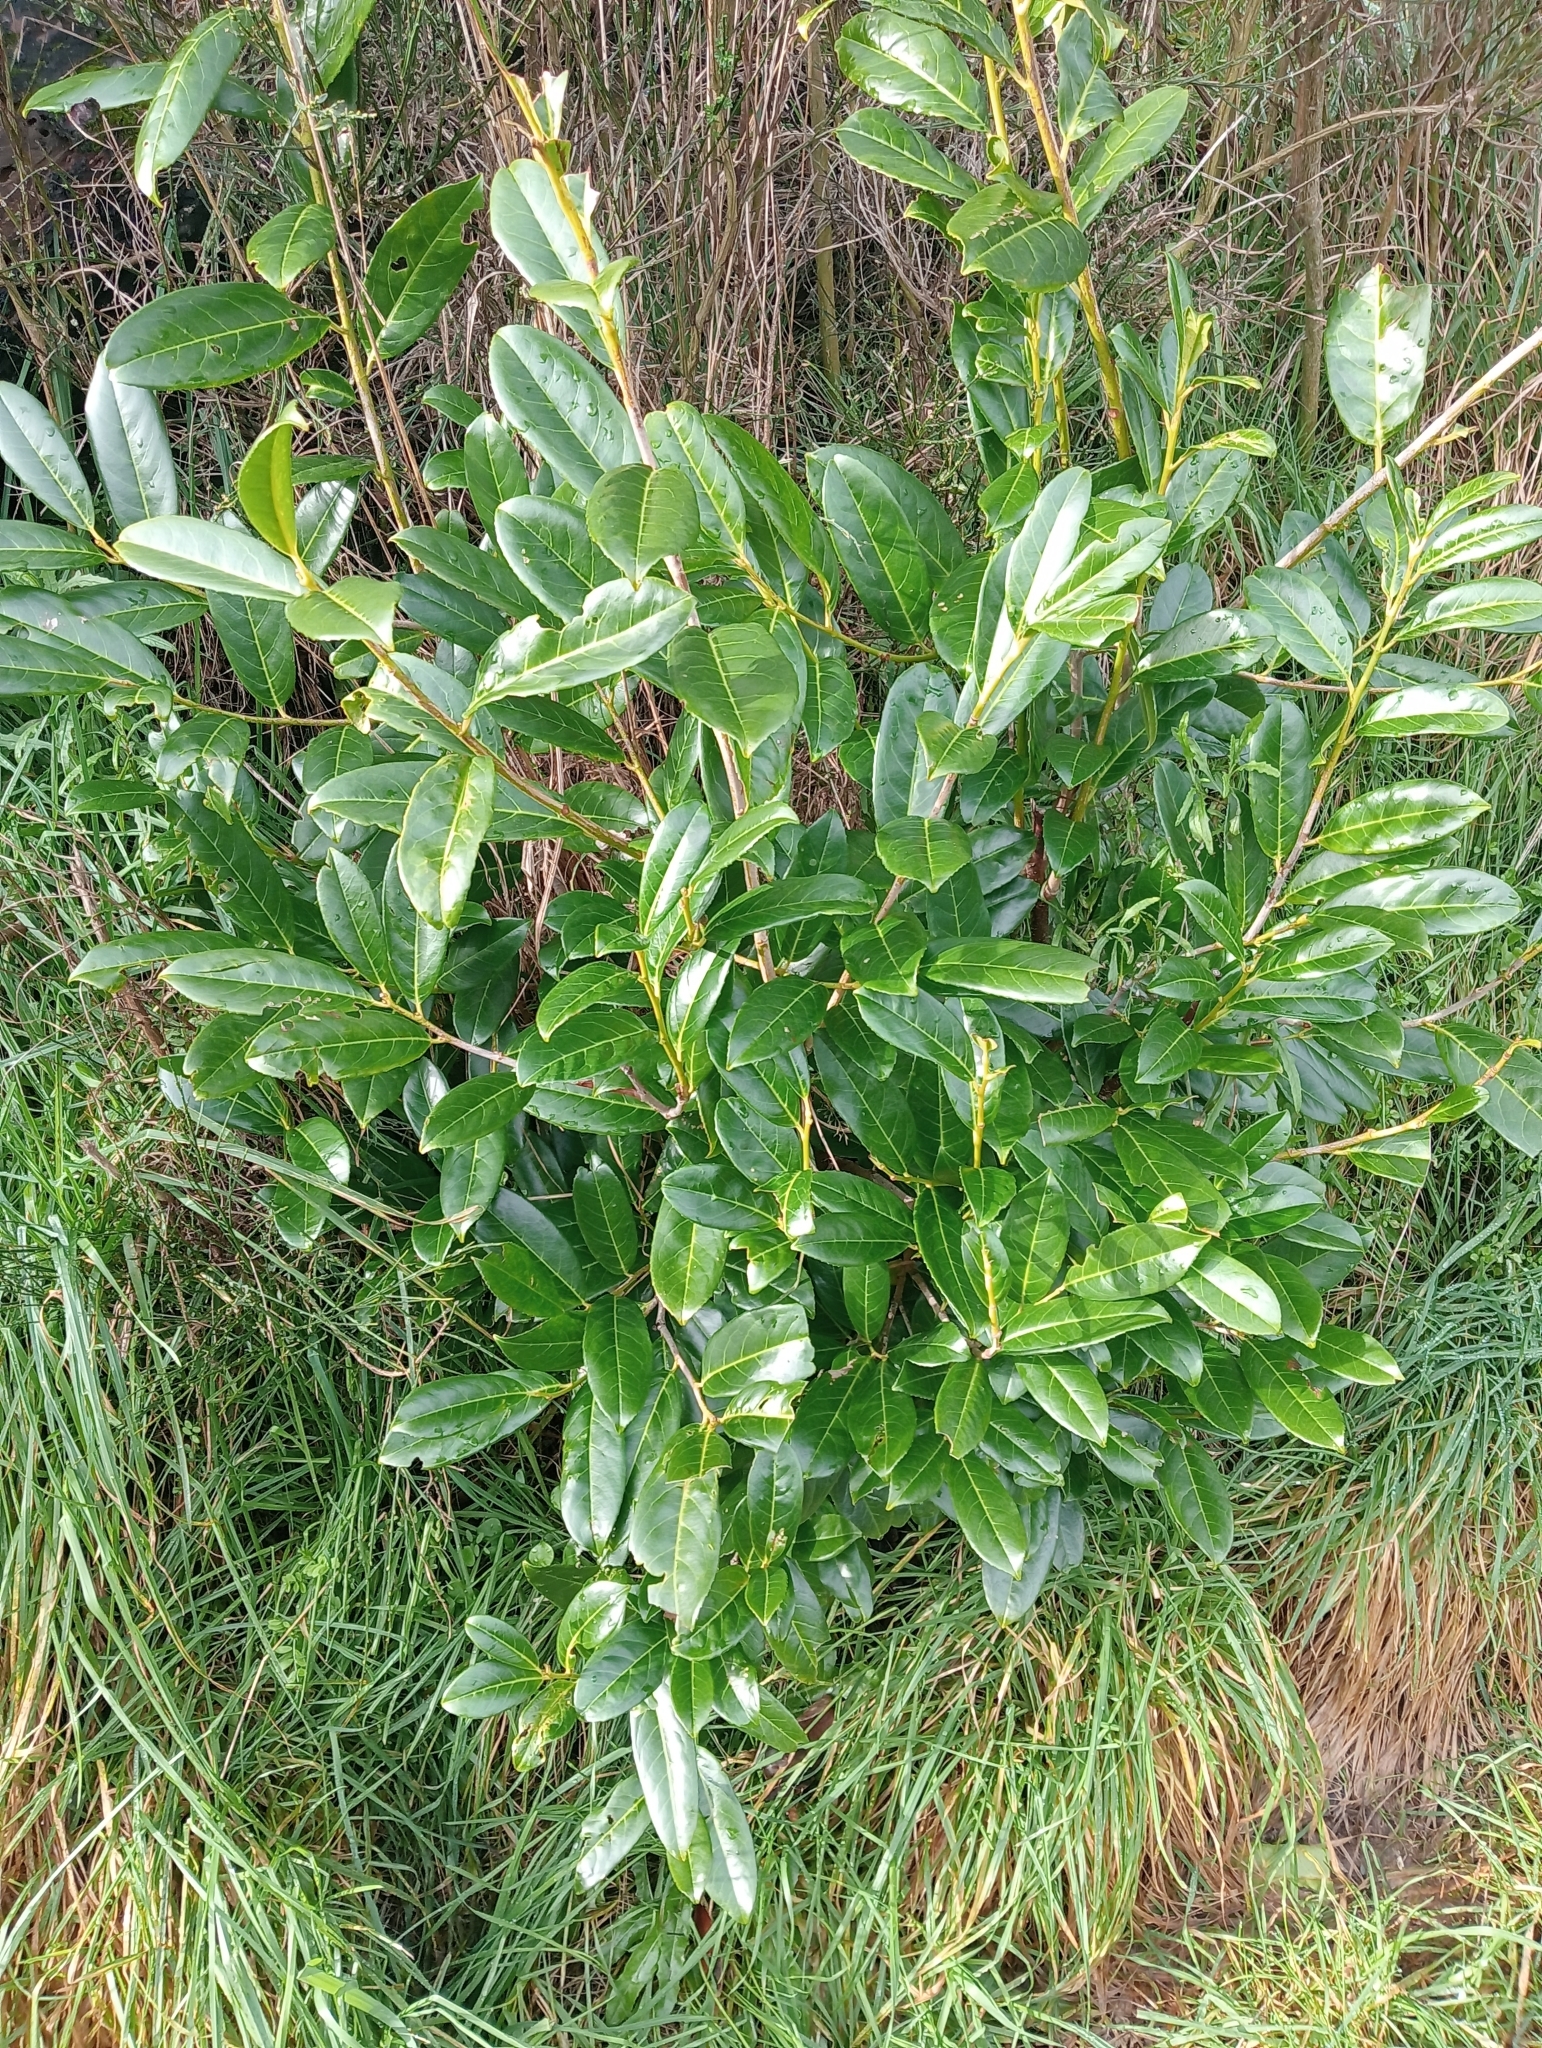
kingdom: Plantae
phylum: Tracheophyta
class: Magnoliopsida
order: Rosales
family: Rosaceae
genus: Prunus
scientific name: Prunus laurocerasus
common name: Cherry laurel
